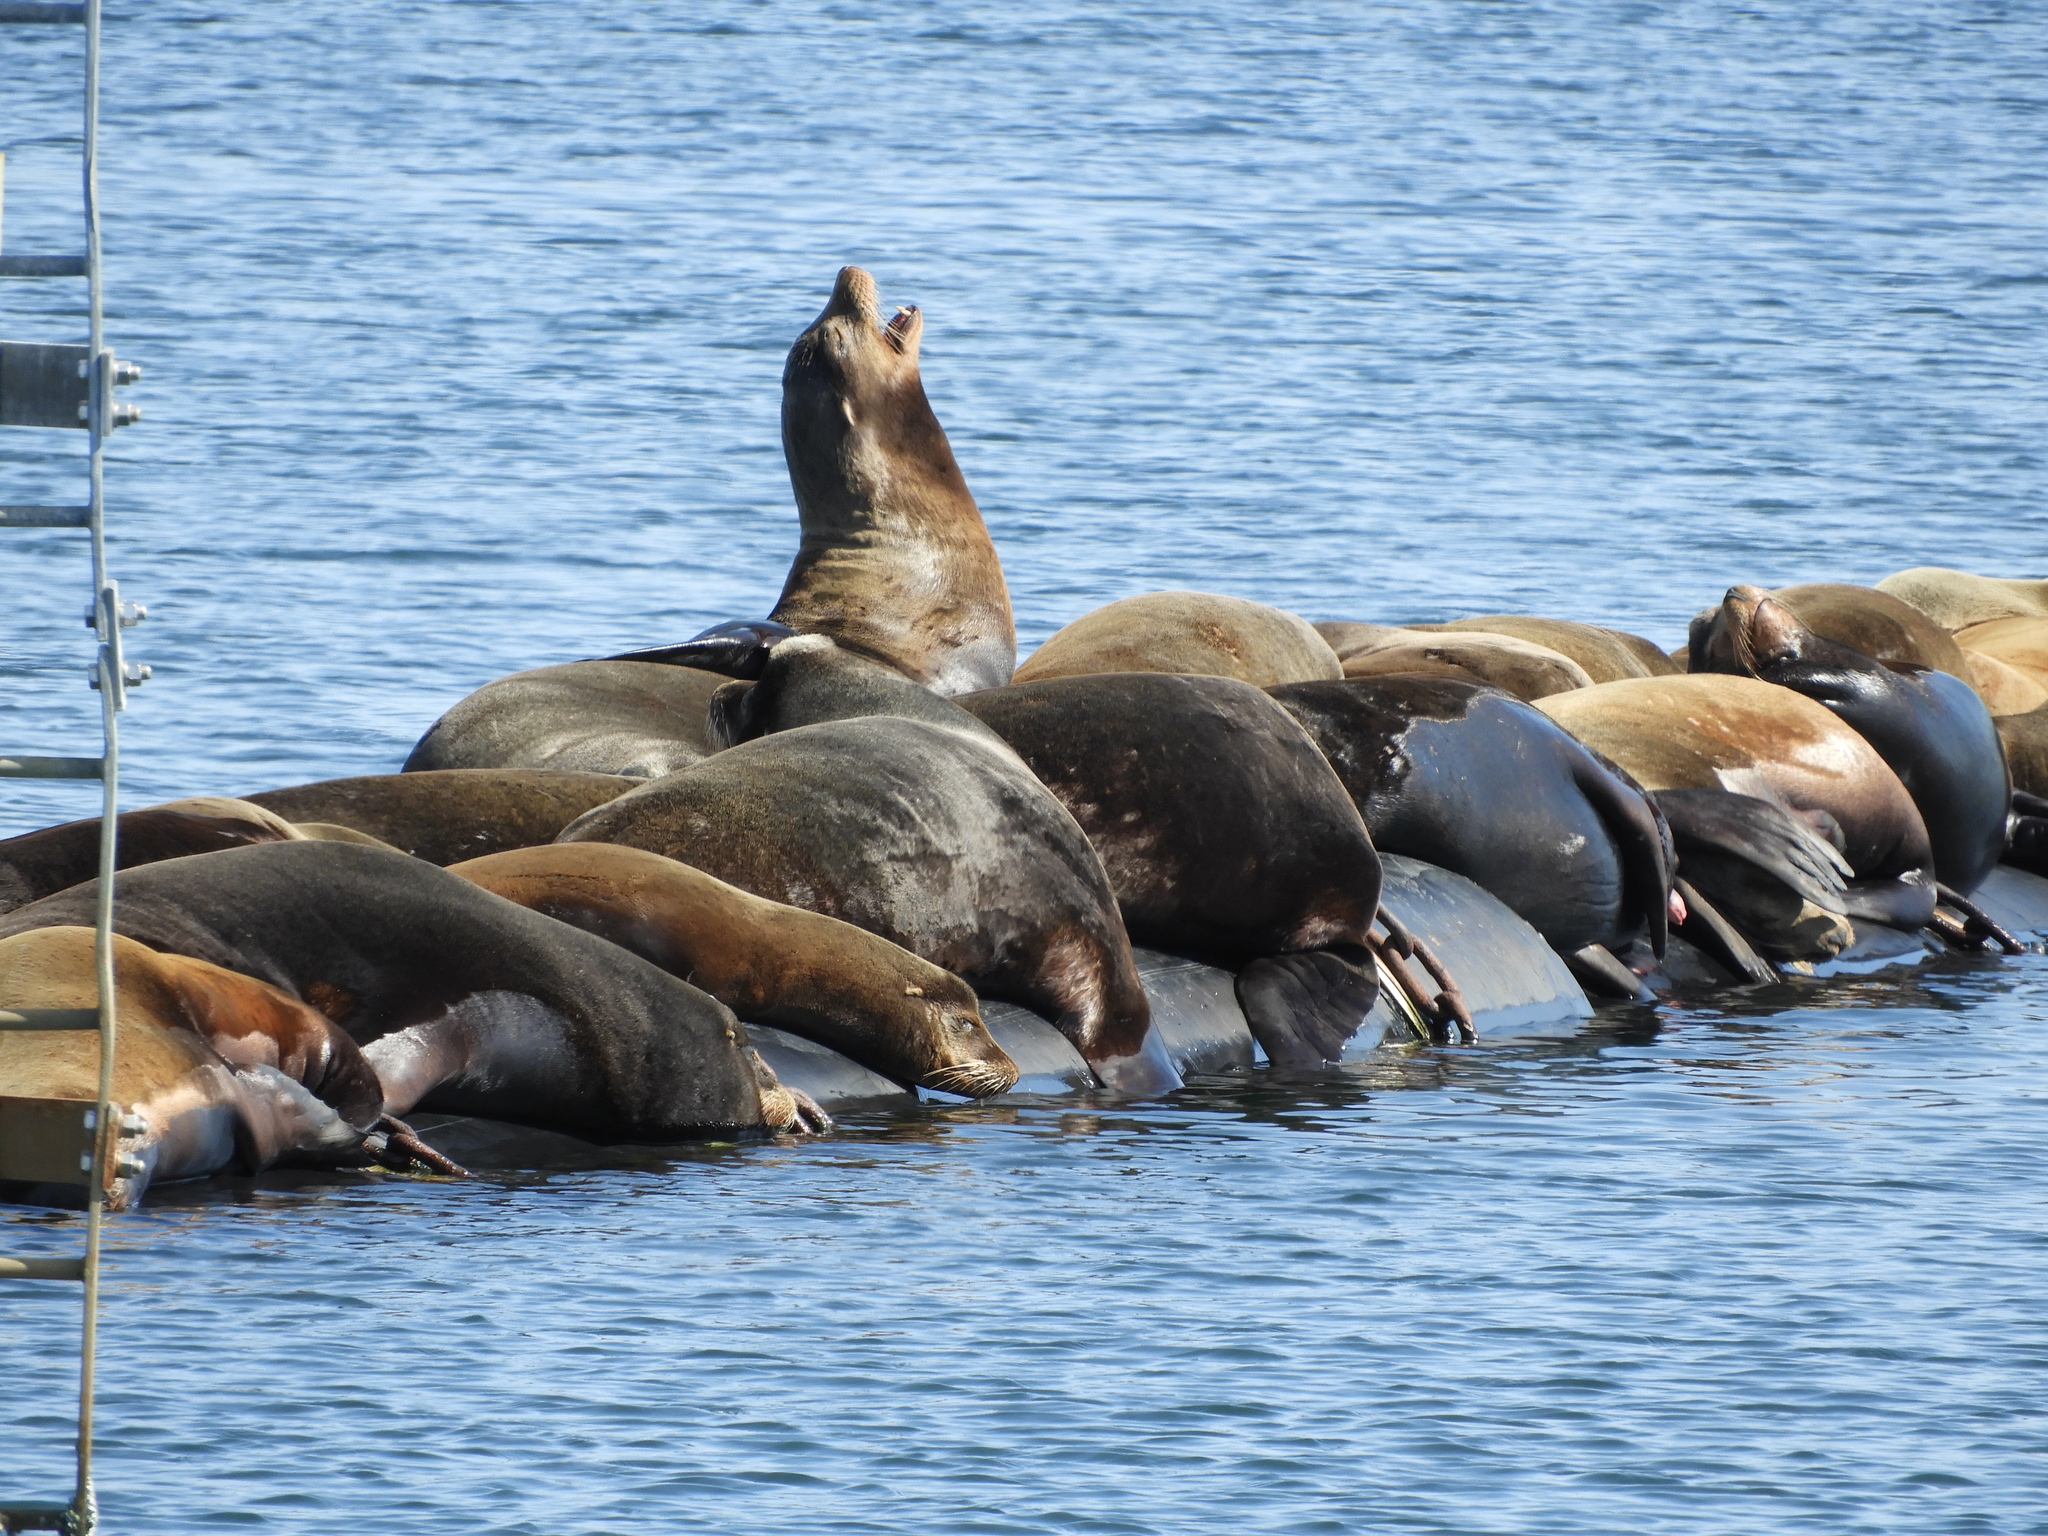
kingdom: Animalia
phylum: Chordata
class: Mammalia
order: Carnivora
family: Otariidae
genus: Zalophus
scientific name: Zalophus californianus
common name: California sea lion
